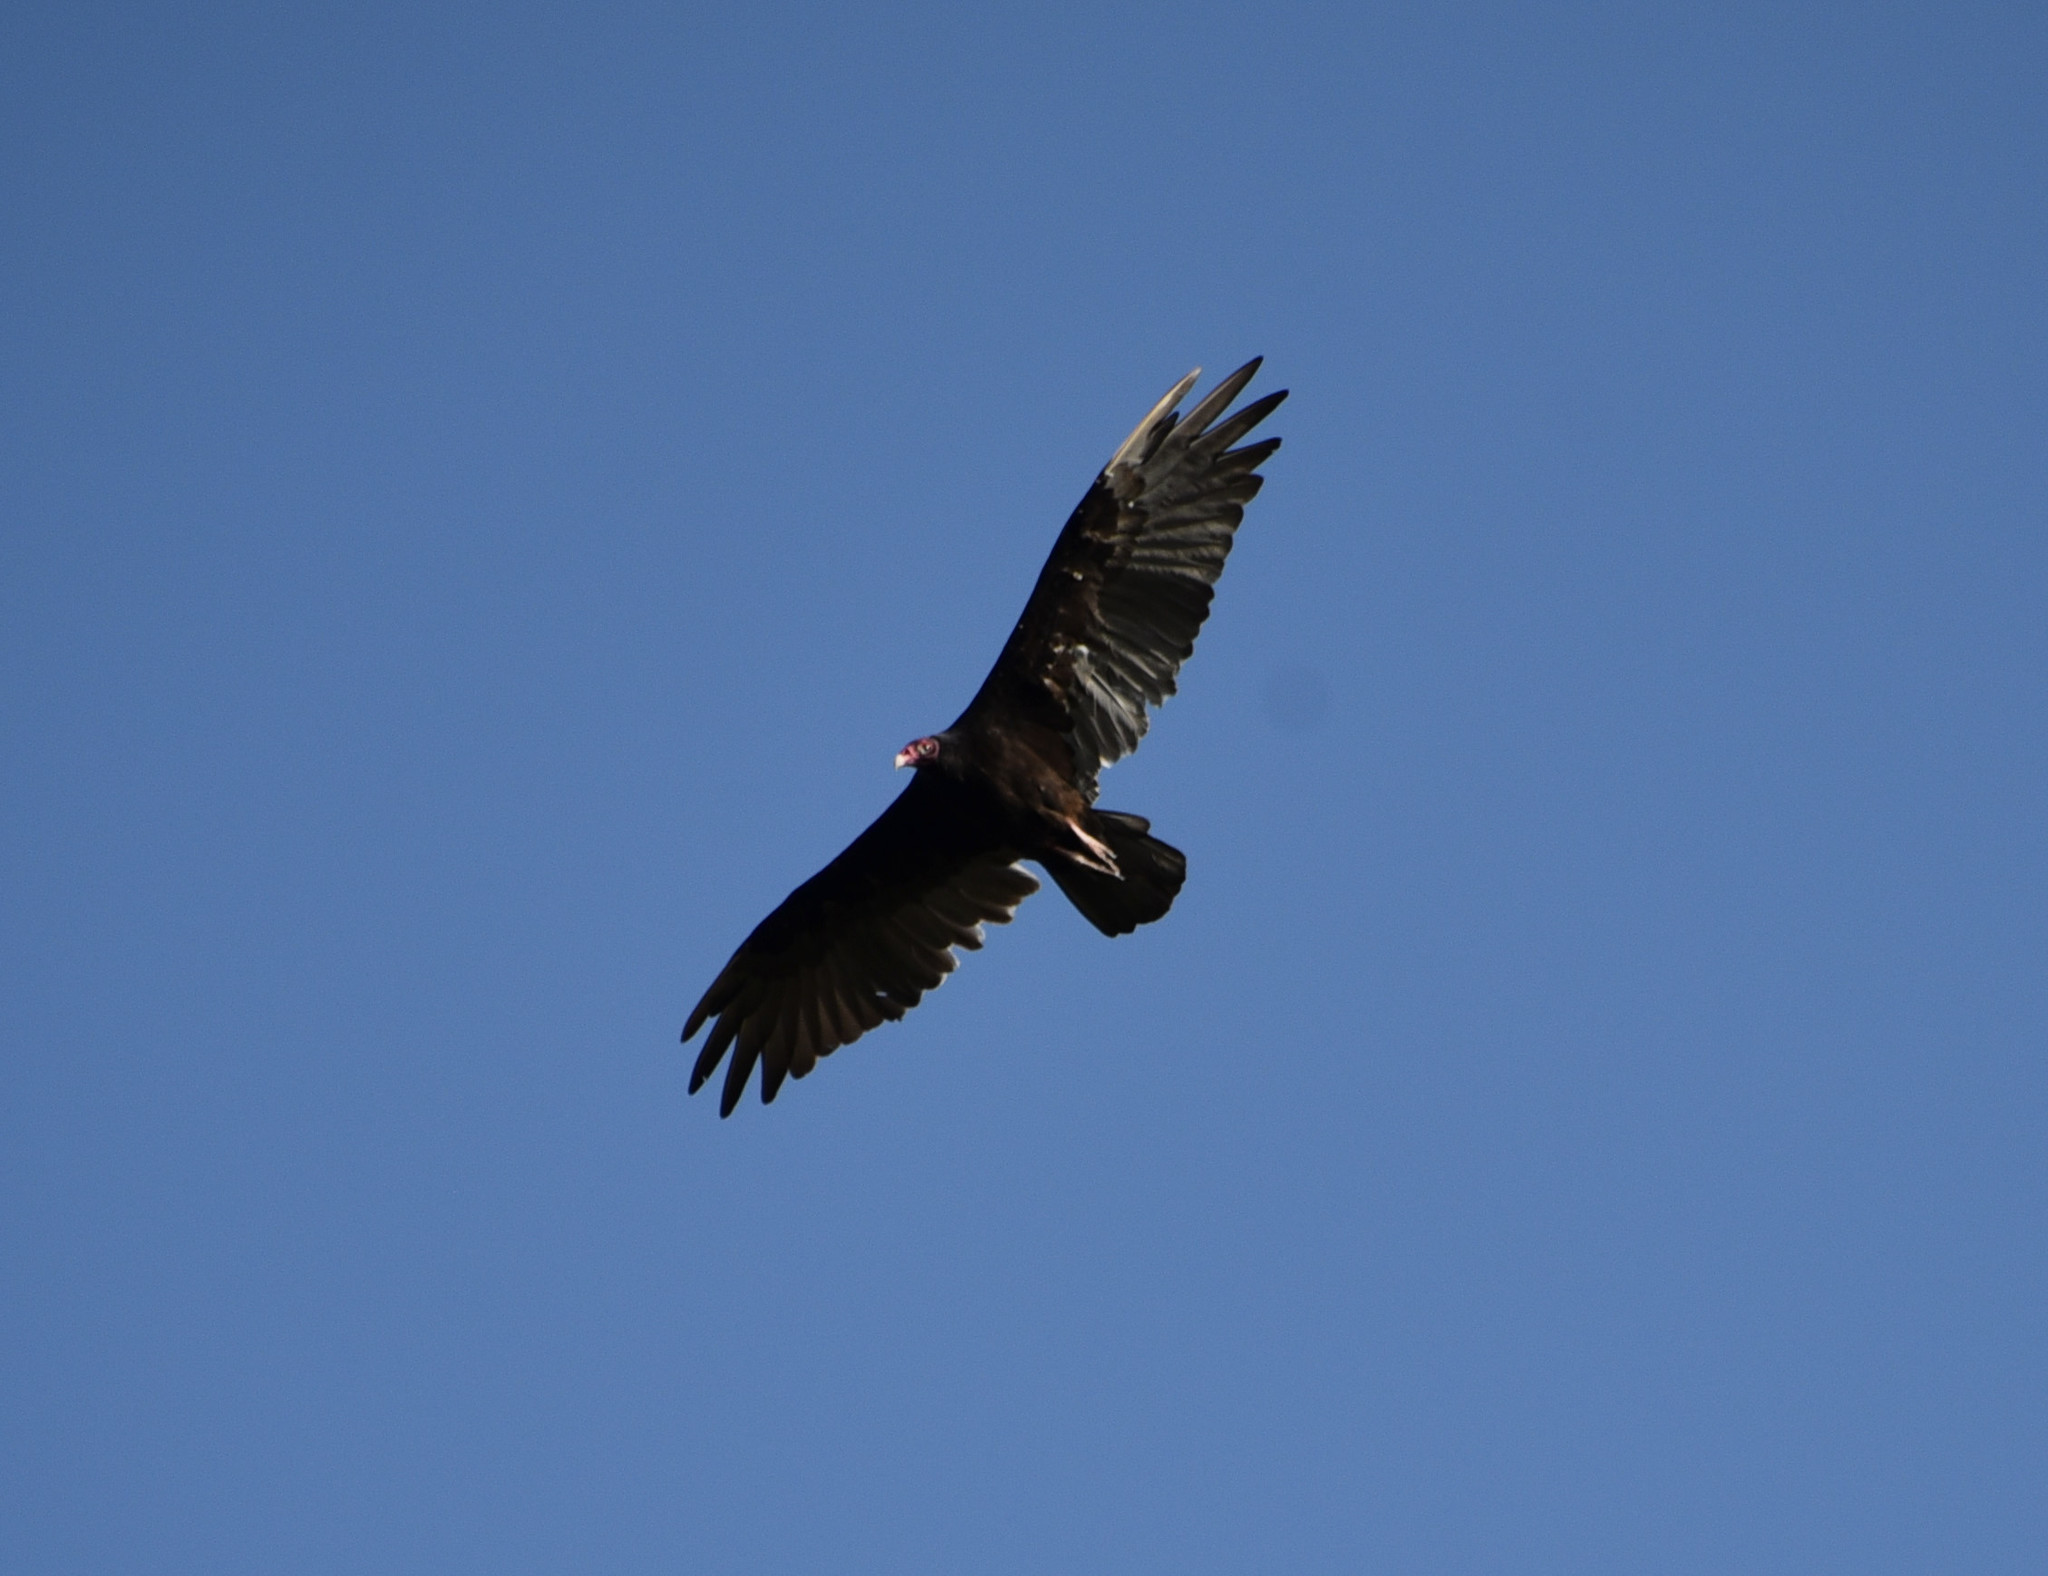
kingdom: Animalia
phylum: Chordata
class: Aves
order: Accipitriformes
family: Cathartidae
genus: Cathartes
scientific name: Cathartes aura
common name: Turkey vulture
